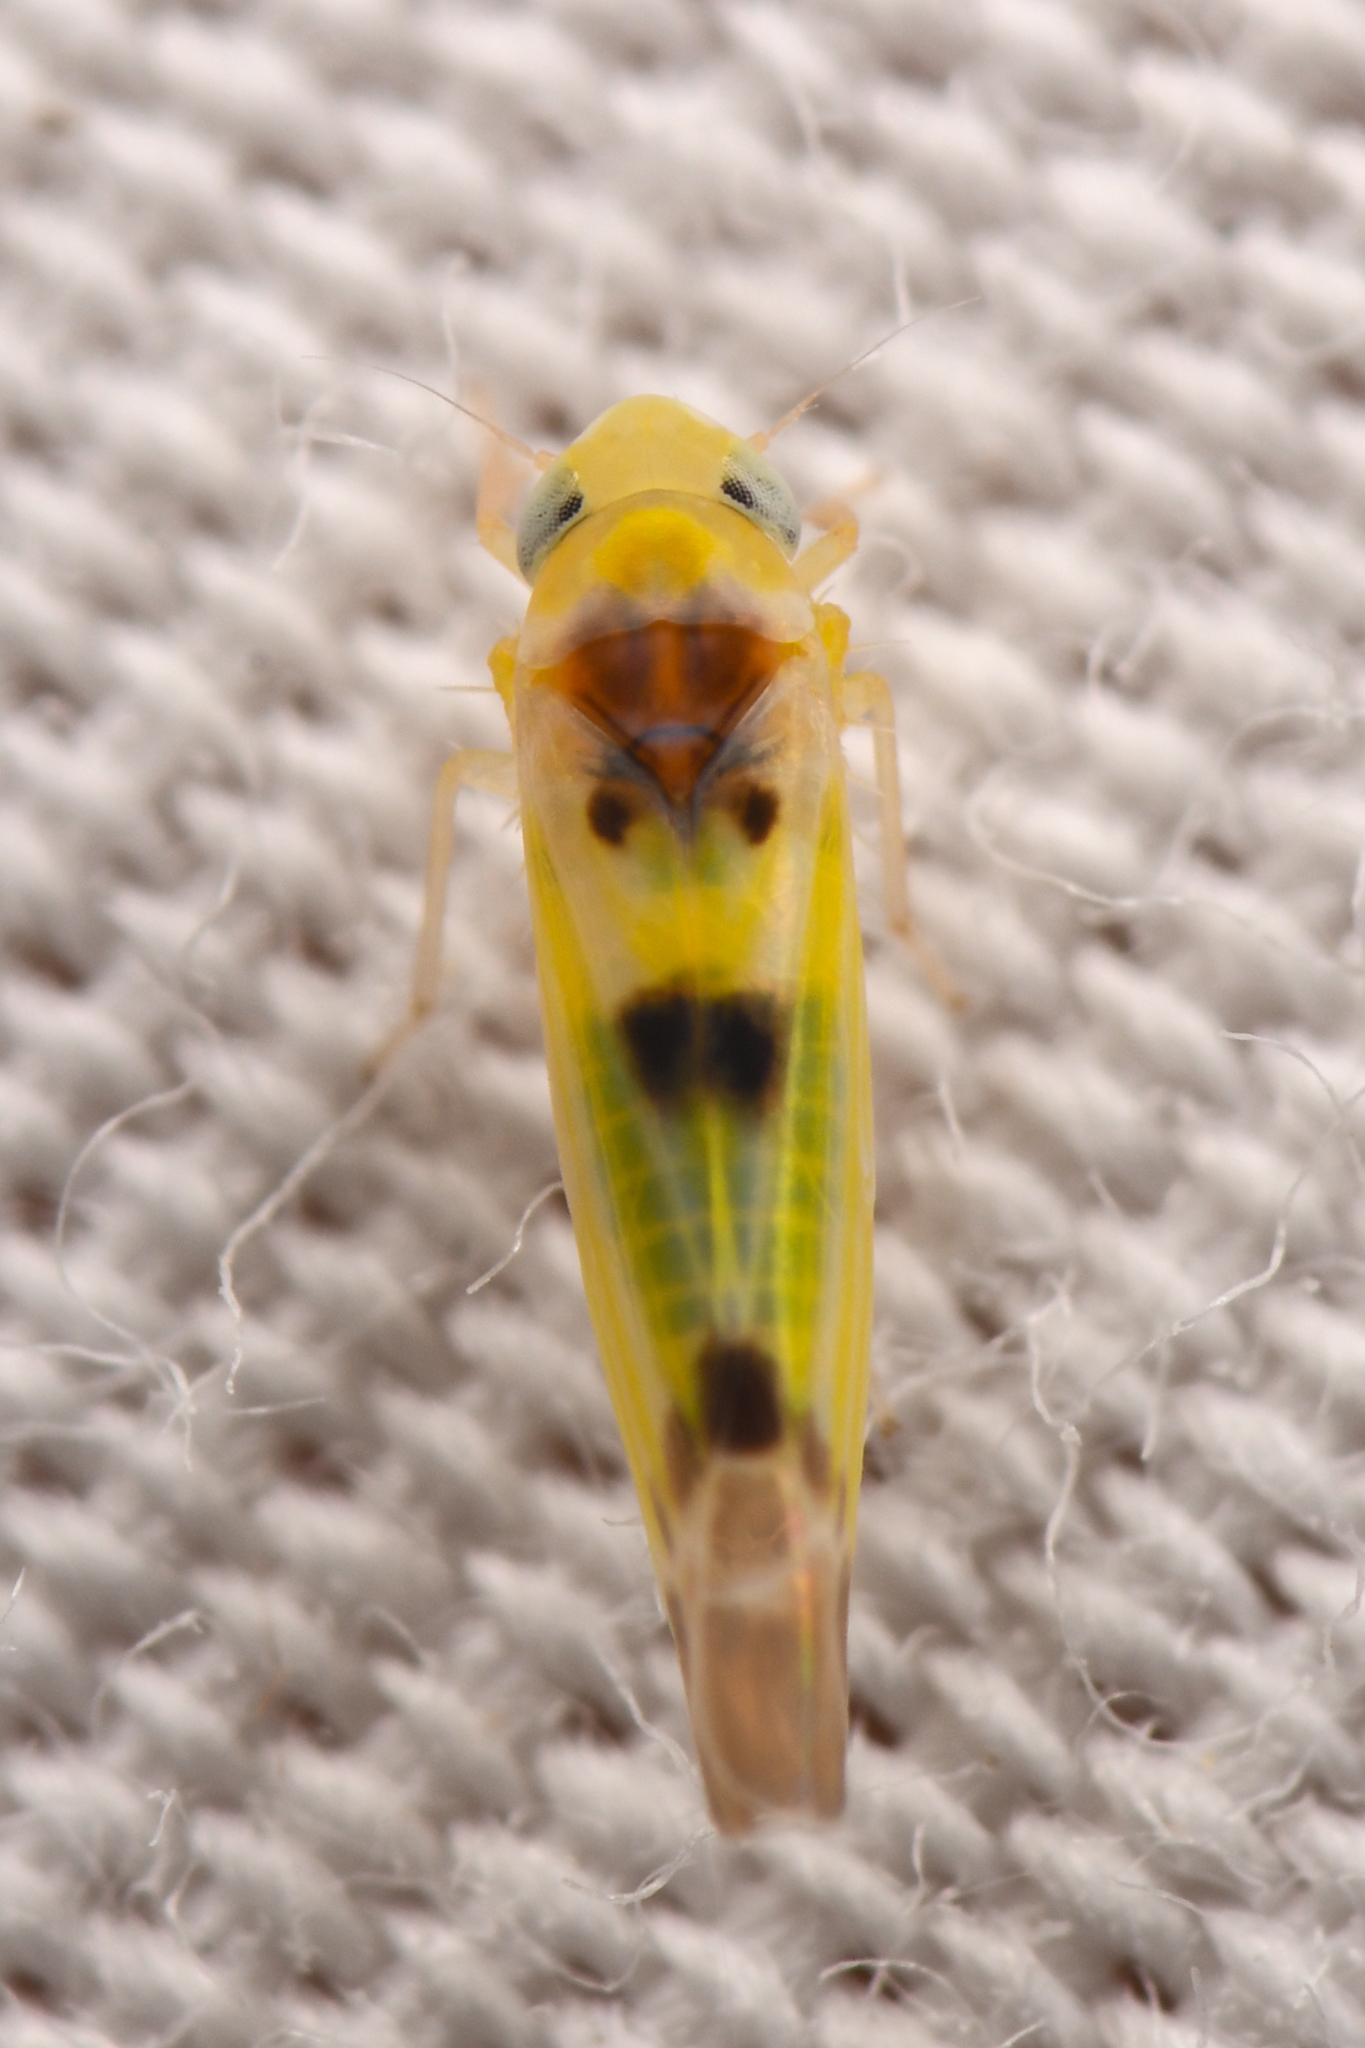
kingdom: Animalia
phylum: Arthropoda
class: Insecta
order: Hemiptera
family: Cicadellidae
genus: Mcateeana
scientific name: Mcateeana sexnotata
